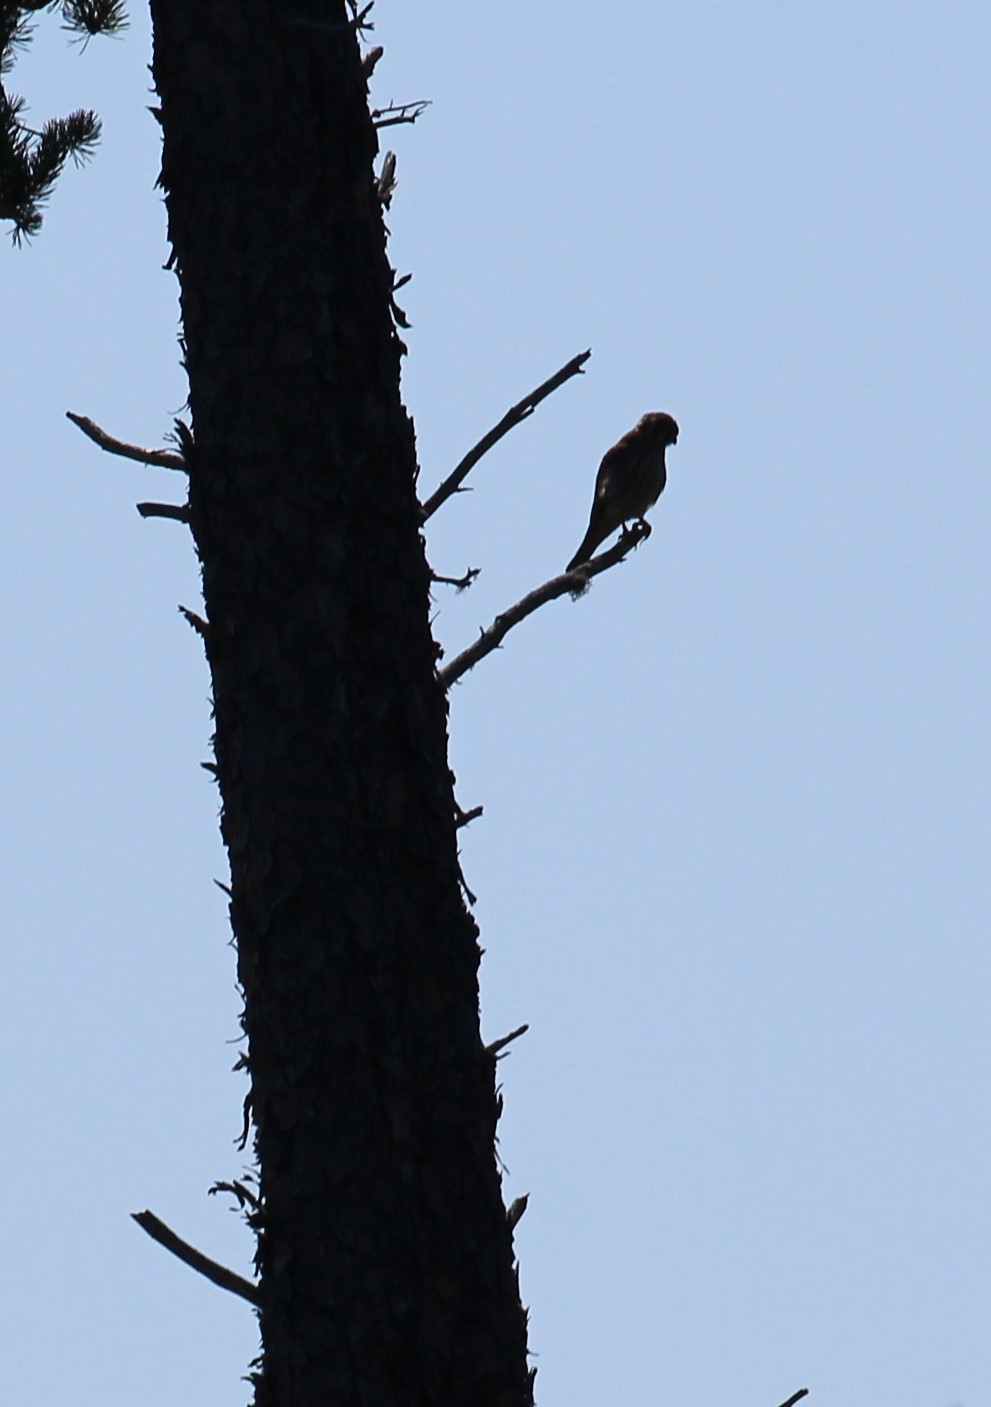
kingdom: Animalia
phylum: Chordata
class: Aves
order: Falconiformes
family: Falconidae
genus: Falco
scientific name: Falco sparverius
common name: American kestrel
